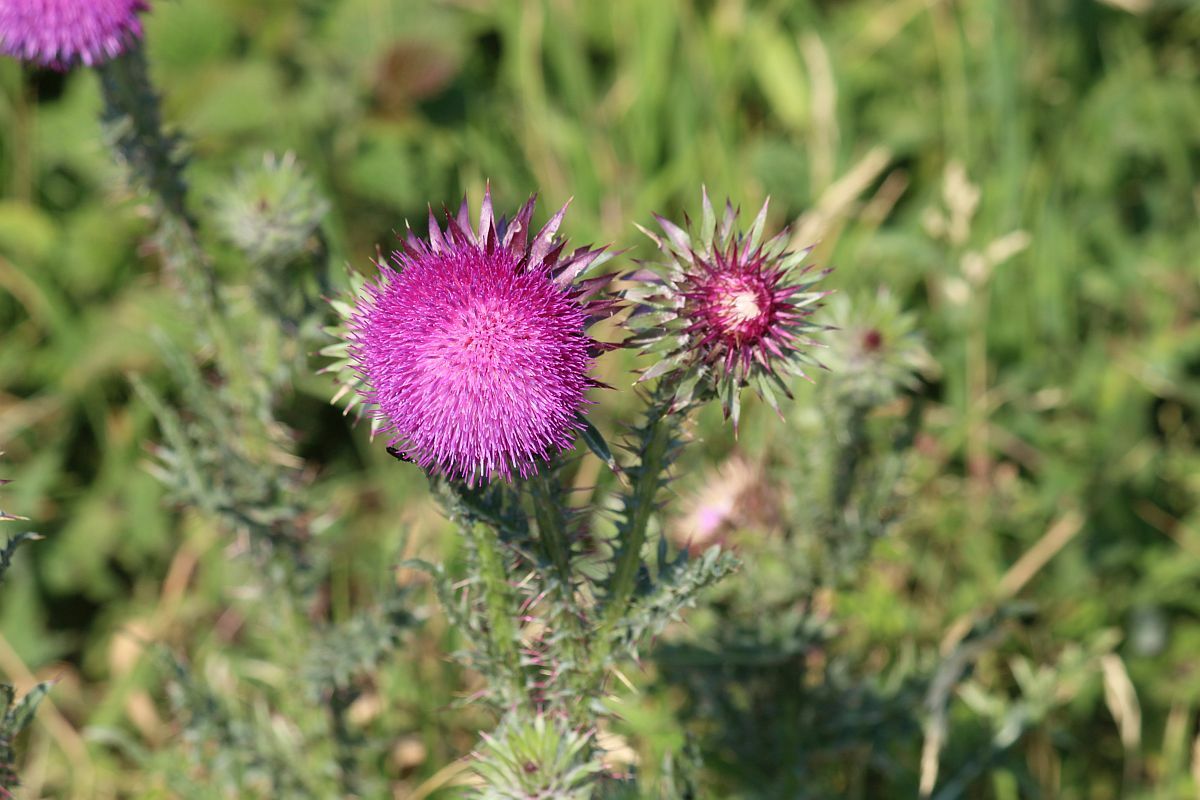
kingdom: Plantae
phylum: Tracheophyta
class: Magnoliopsida
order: Asterales
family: Asteraceae
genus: Carduus
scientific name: Carduus nutans
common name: Musk thistle
